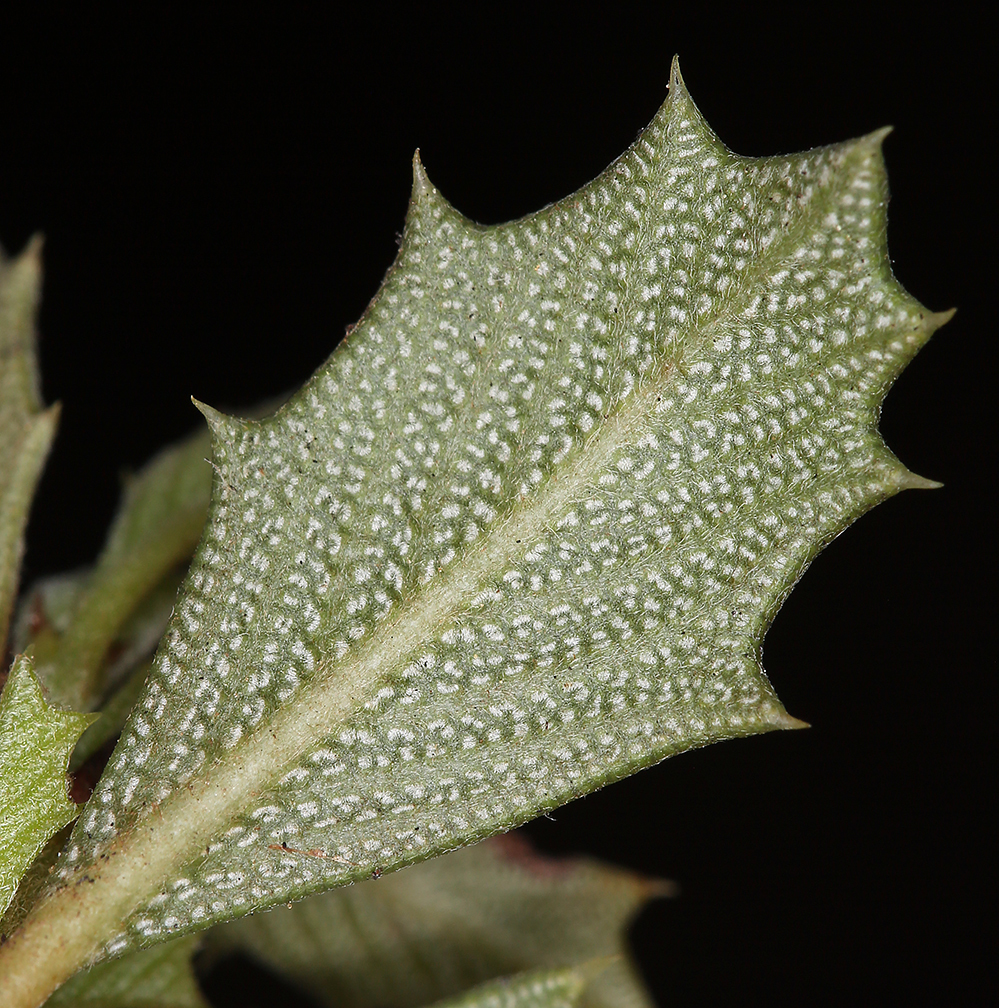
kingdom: Plantae
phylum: Tracheophyta
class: Magnoliopsida
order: Rosales
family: Rhamnaceae
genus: Ceanothus
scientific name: Ceanothus prostratus
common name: Mahala-mat
